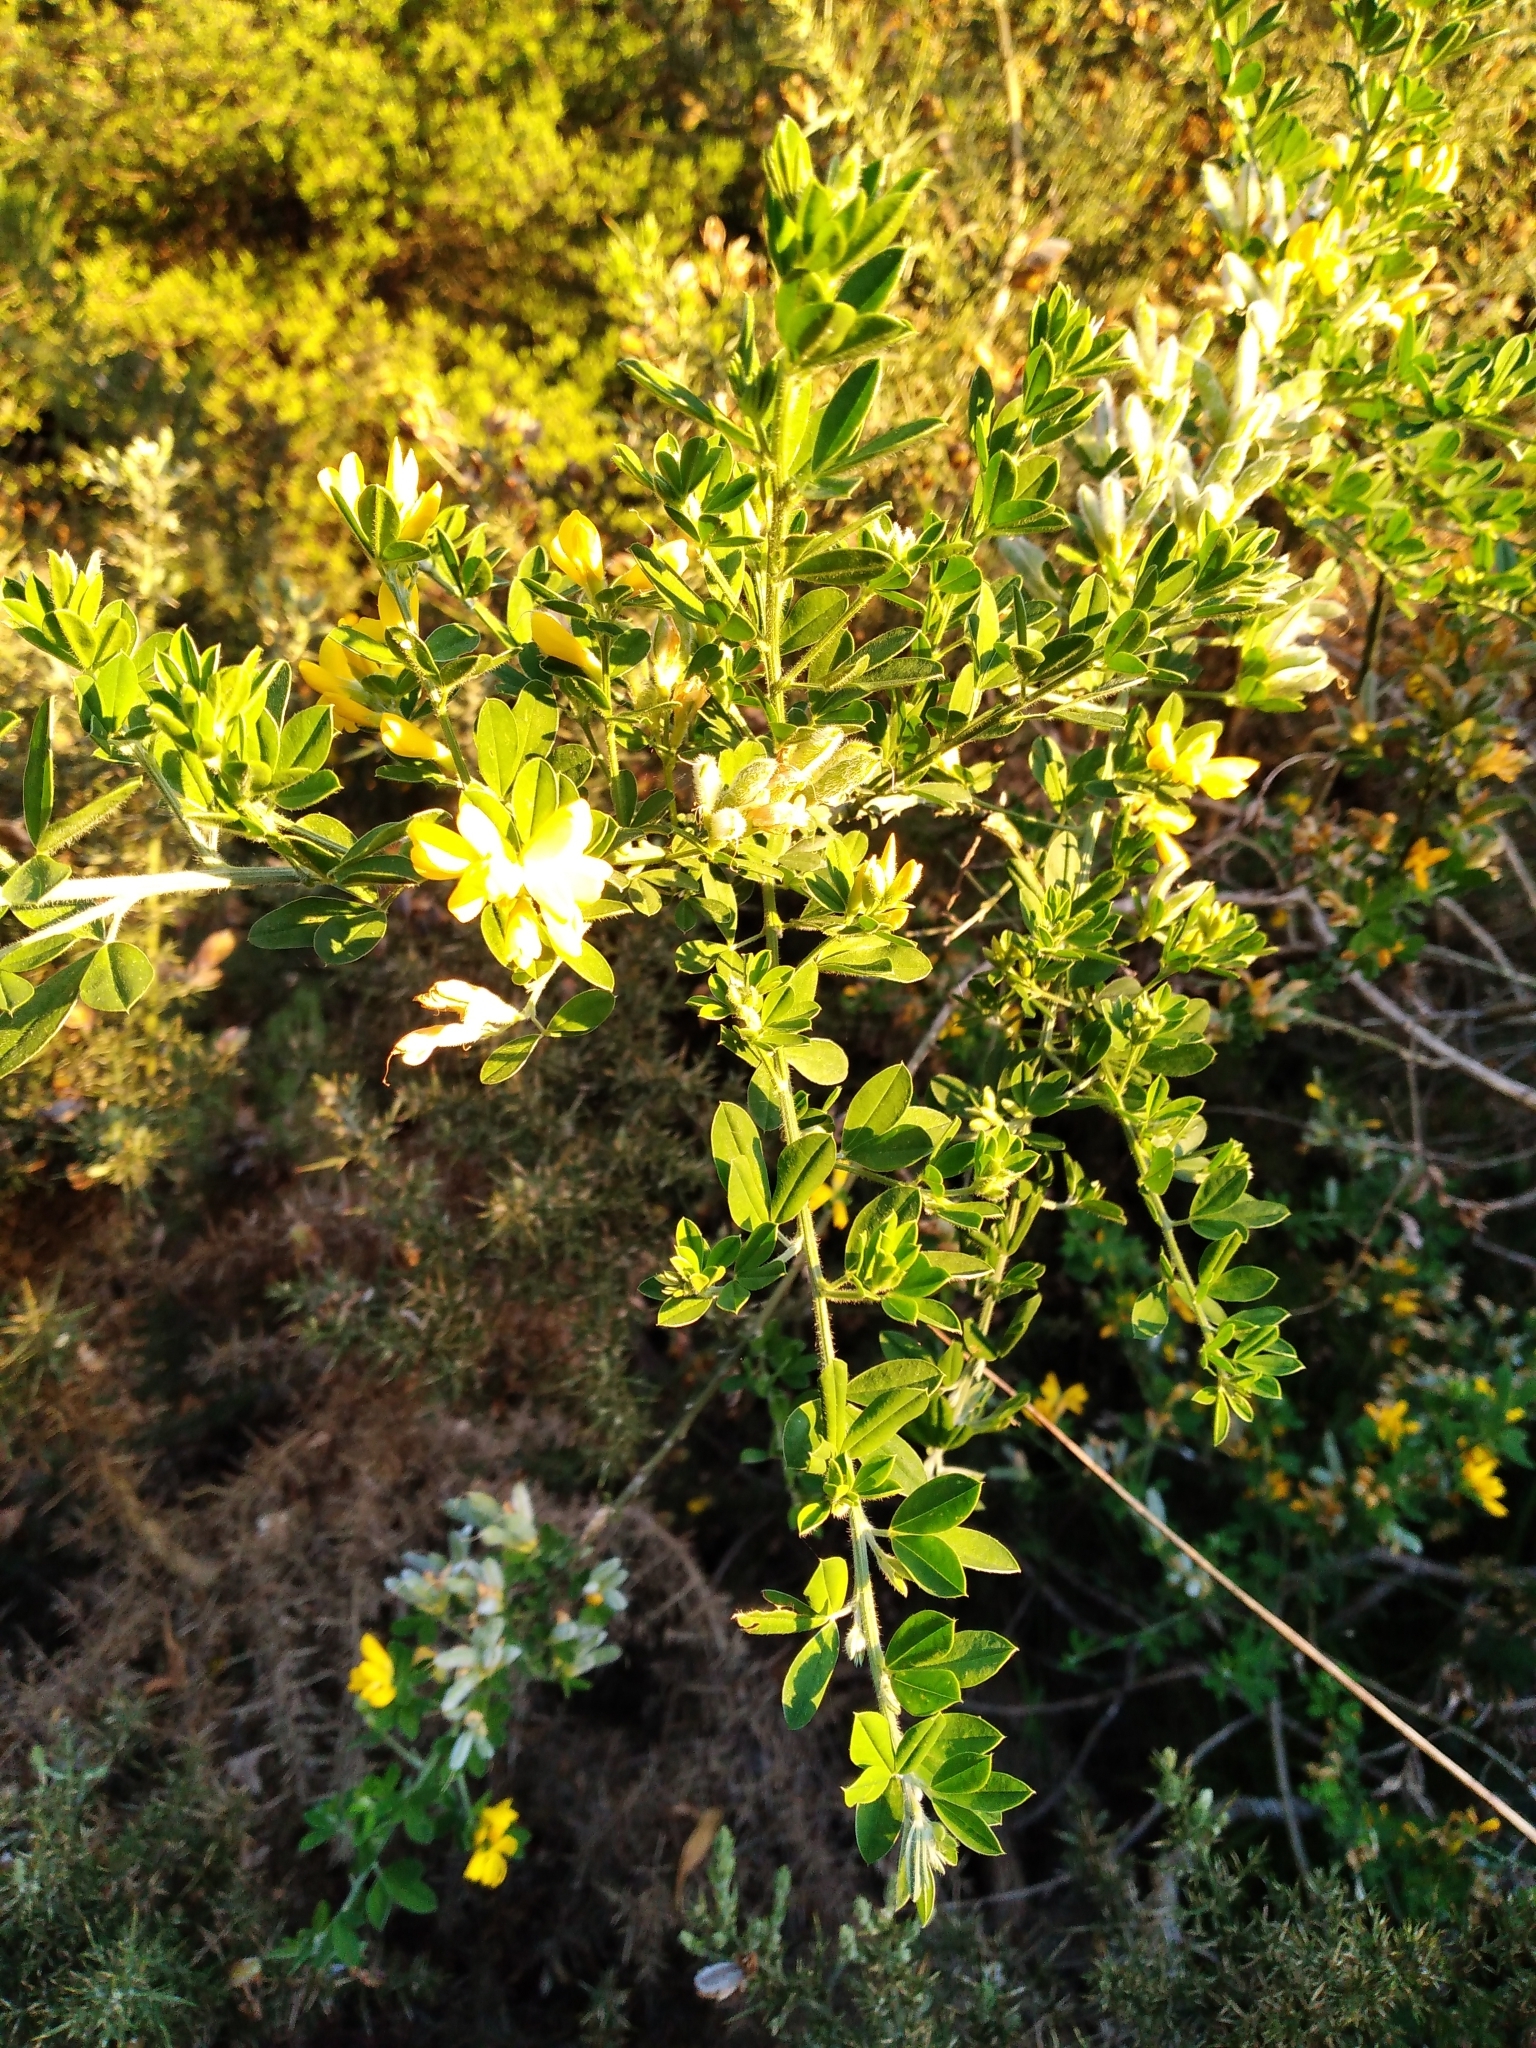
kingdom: Plantae
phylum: Tracheophyta
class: Magnoliopsida
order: Fabales
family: Fabaceae
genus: Genista
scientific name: Genista monspessulana
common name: Montpellier broom
